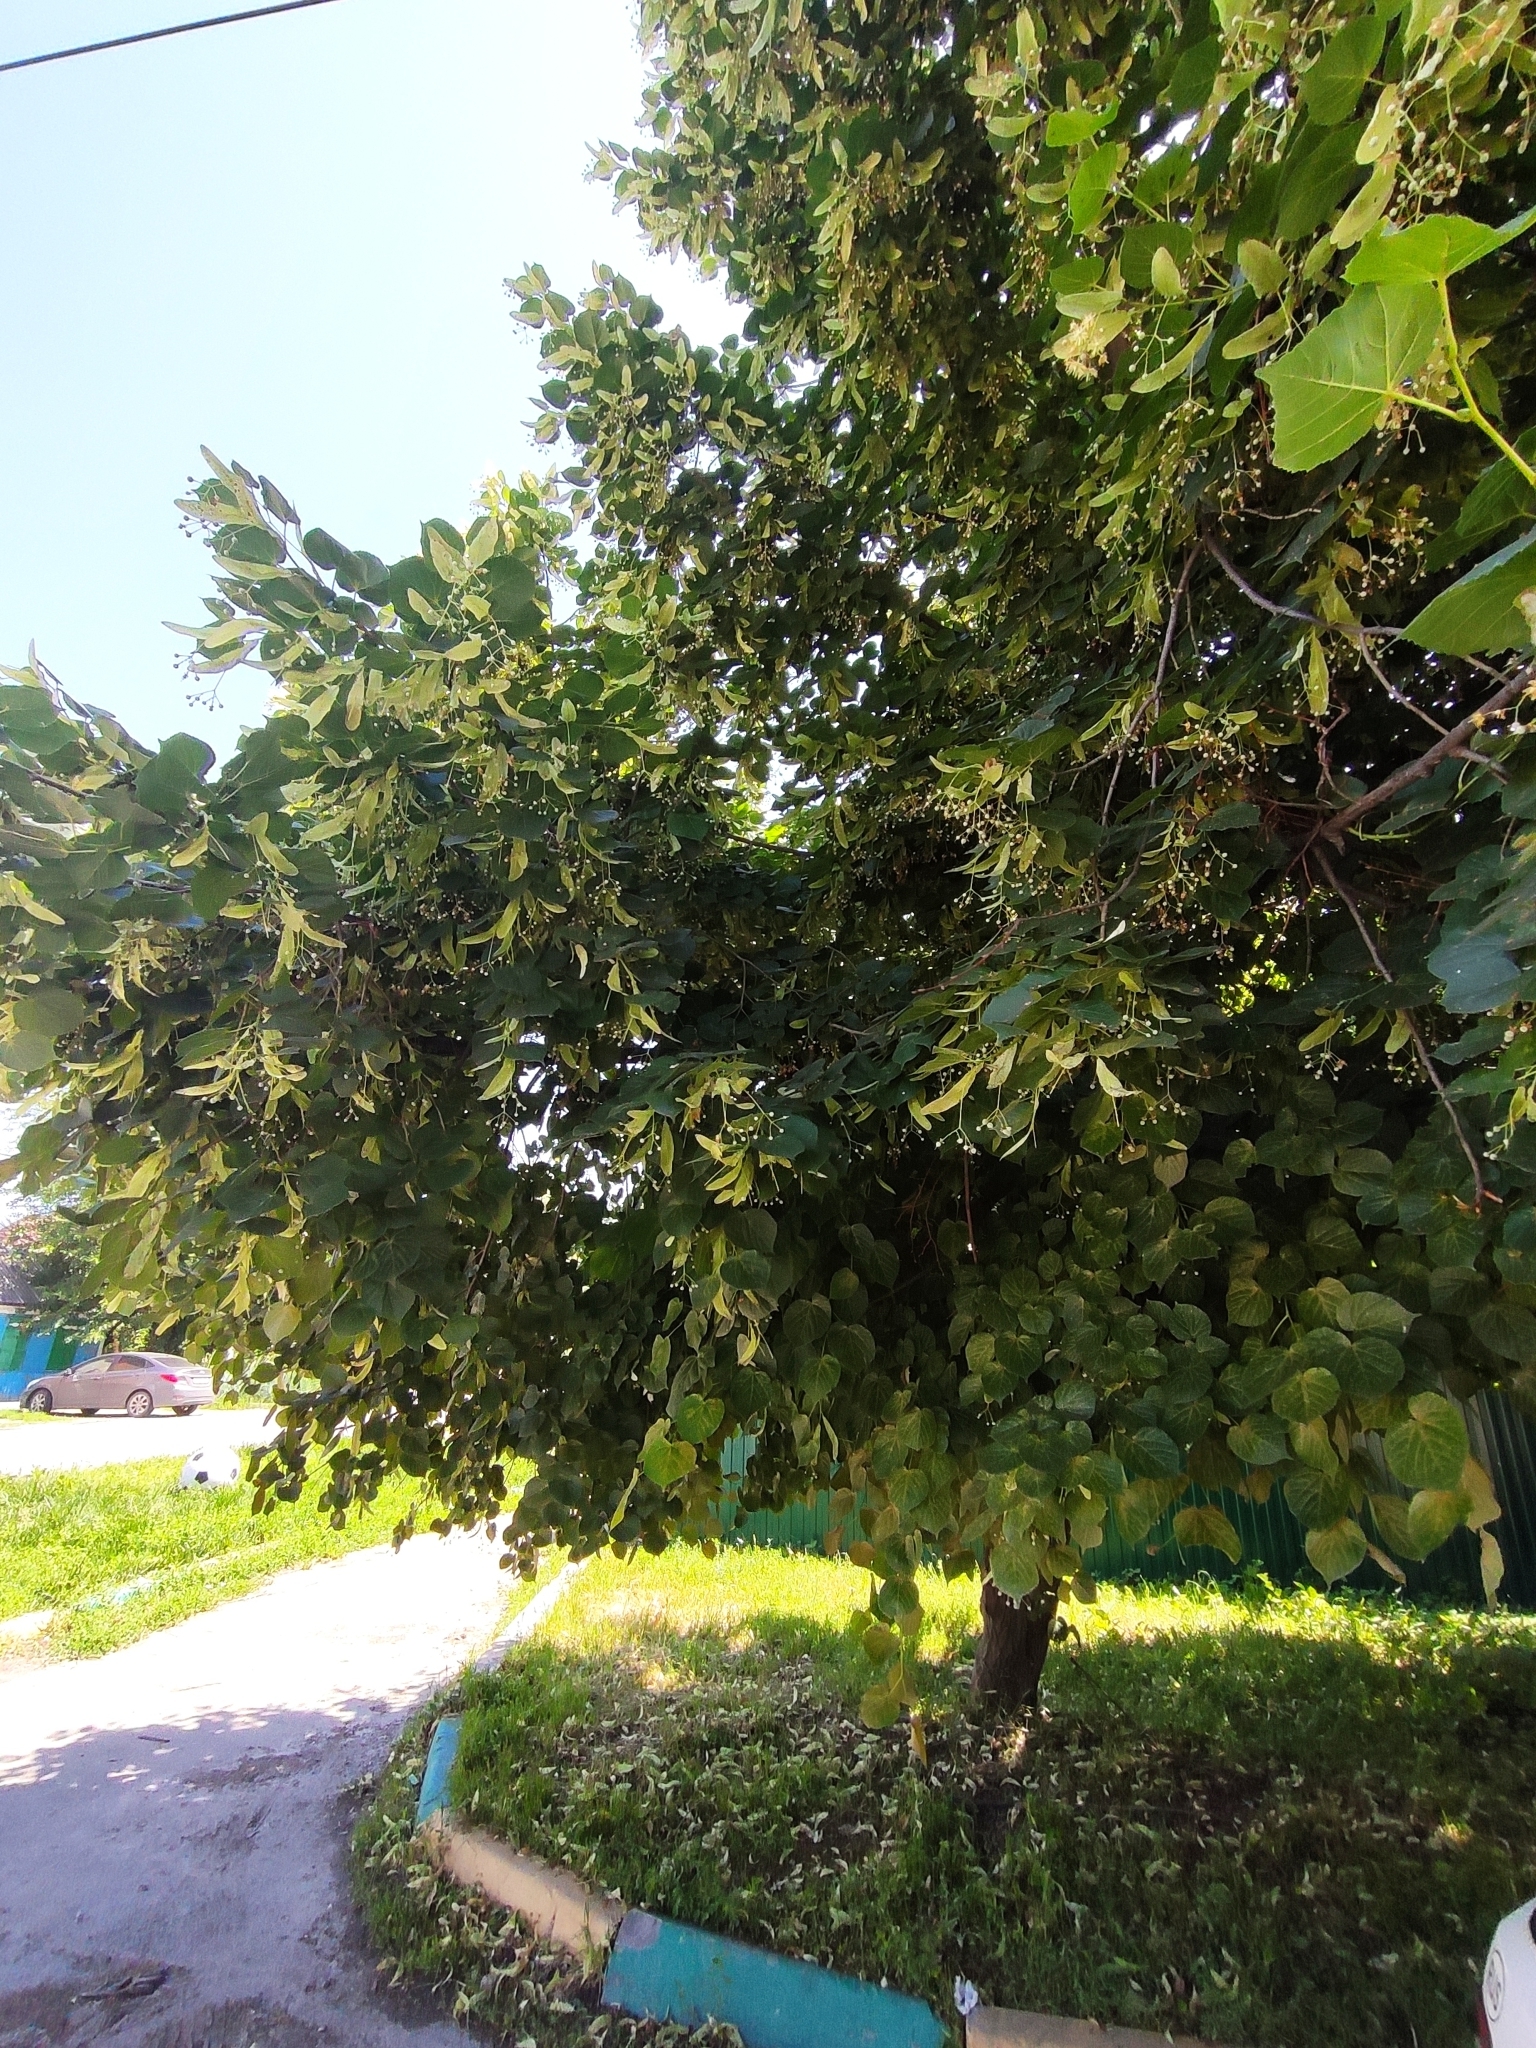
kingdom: Plantae
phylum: Tracheophyta
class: Magnoliopsida
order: Malvales
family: Malvaceae
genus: Tilia
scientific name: Tilia cordata
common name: Small-leaved lime
